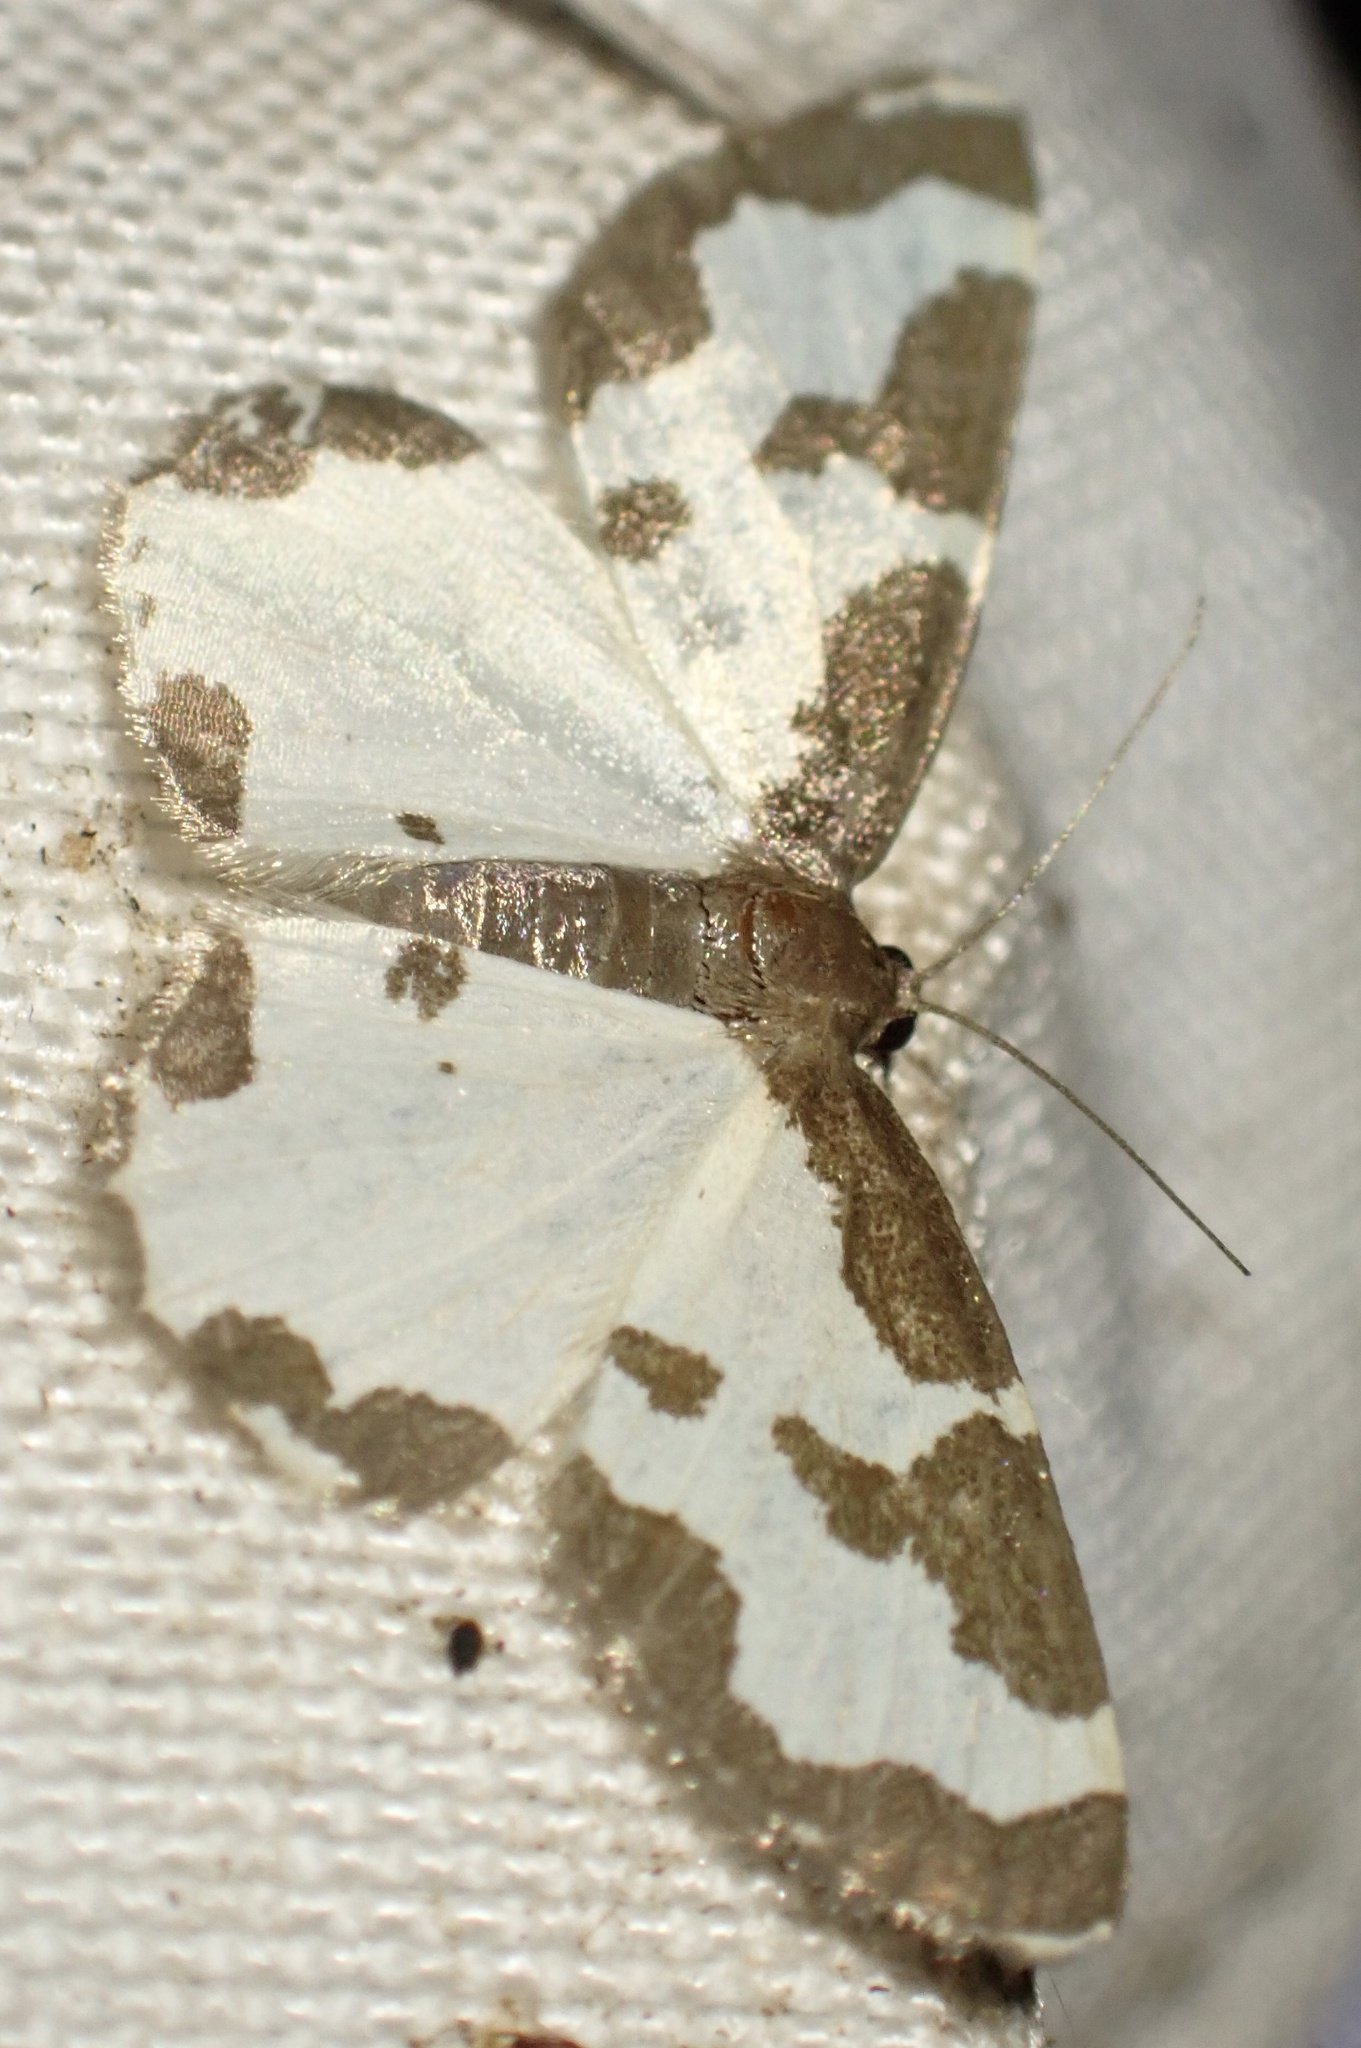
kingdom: Animalia
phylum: Arthropoda
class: Insecta
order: Lepidoptera
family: Geometridae
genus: Lomaspilis
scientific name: Lomaspilis marginata
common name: Clouded border
